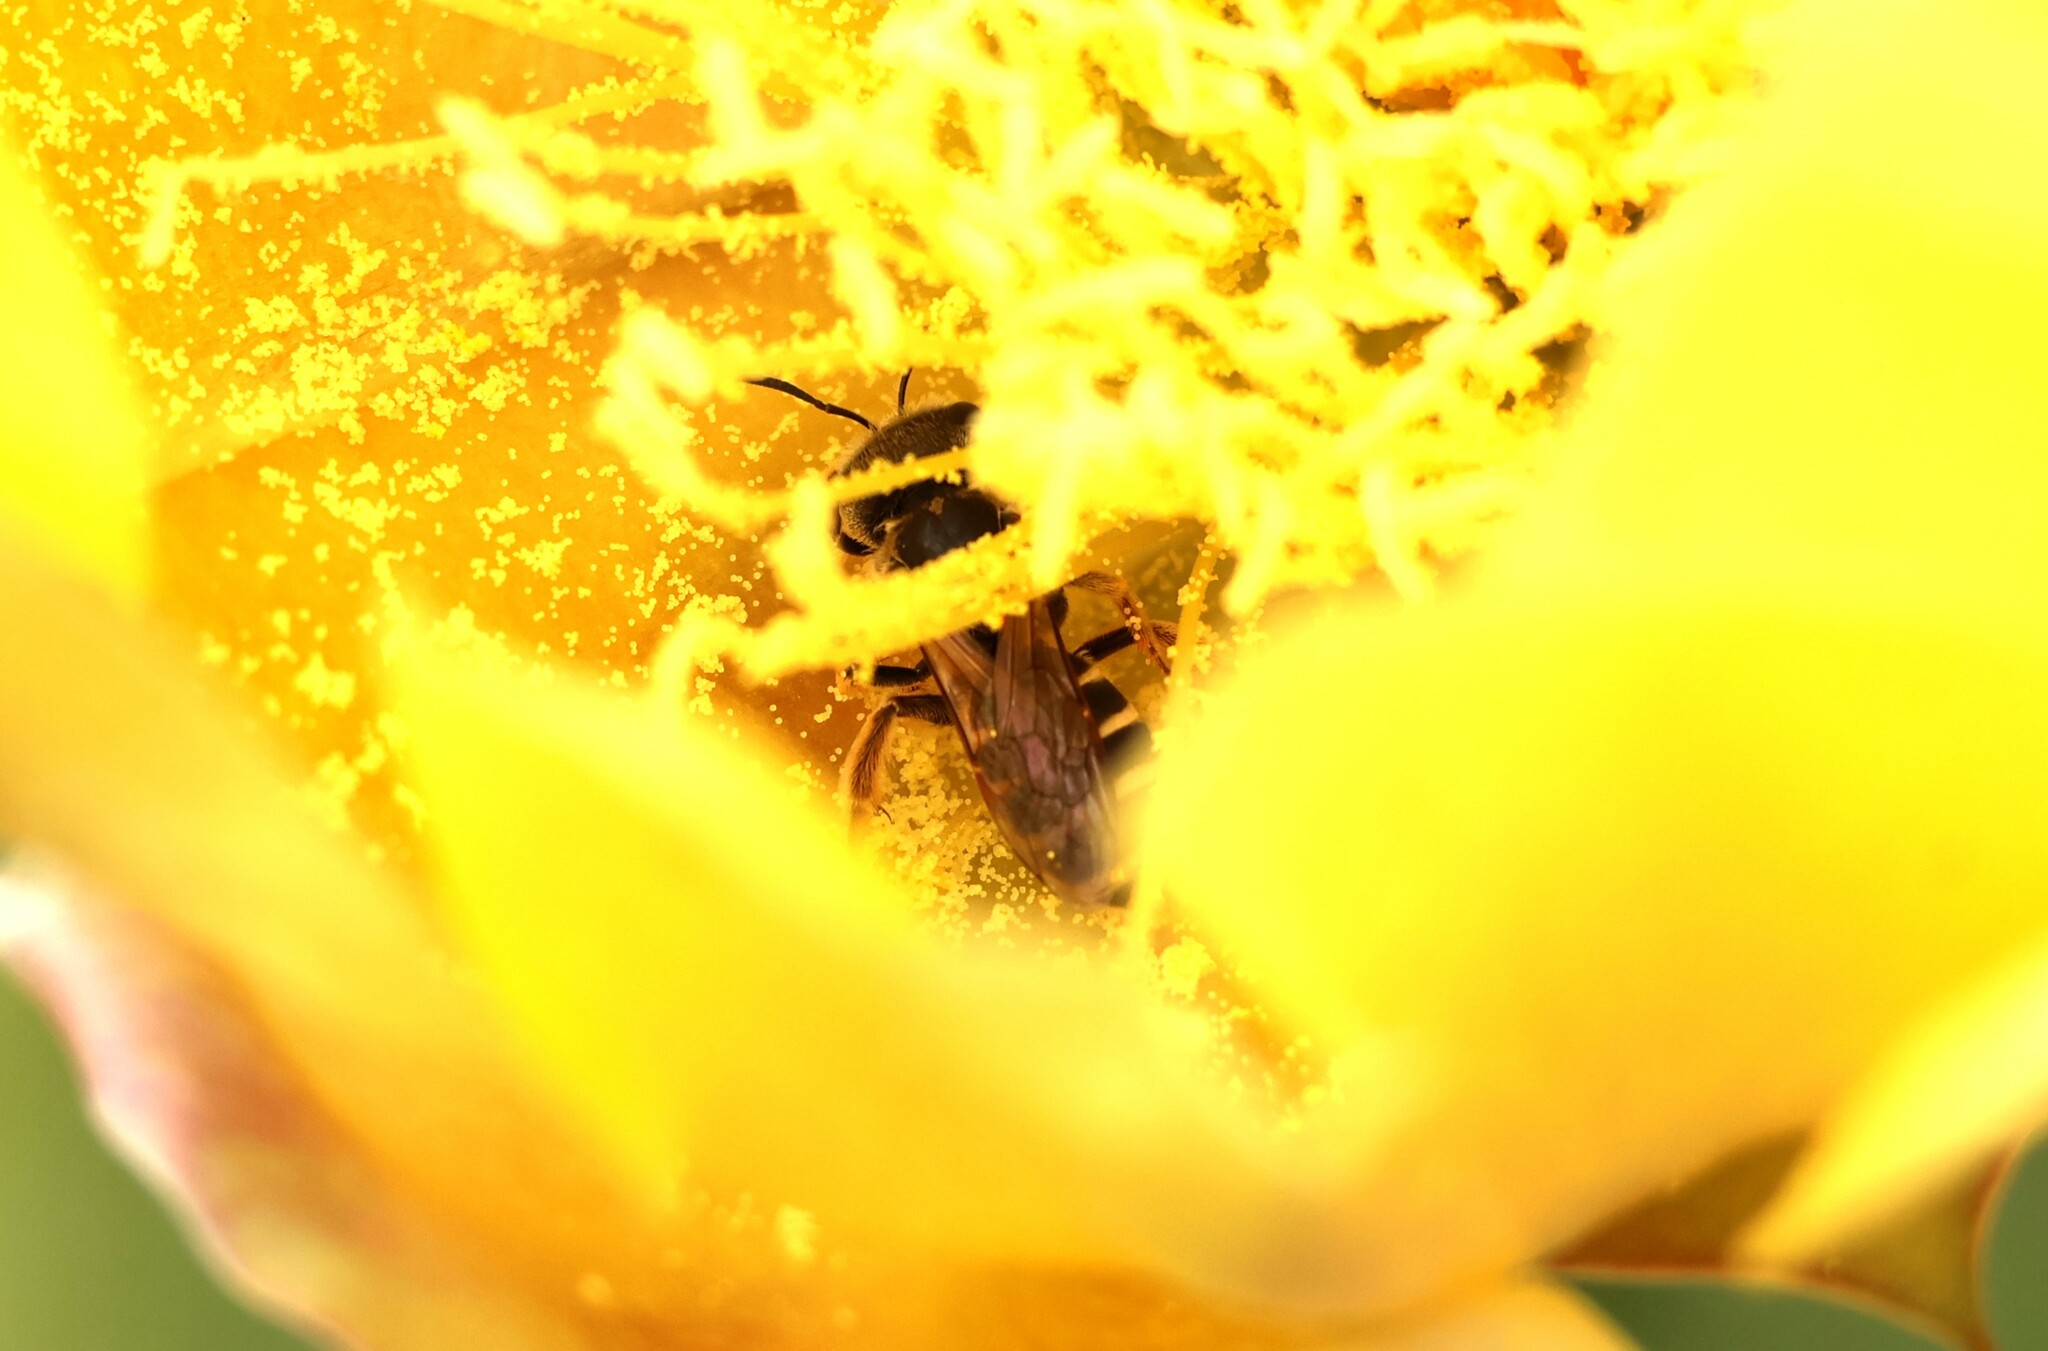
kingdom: Animalia
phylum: Arthropoda
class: Insecta
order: Hymenoptera
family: Halictidae
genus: Halictus
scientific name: Halictus ligatus
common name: Ligated furrow bee
